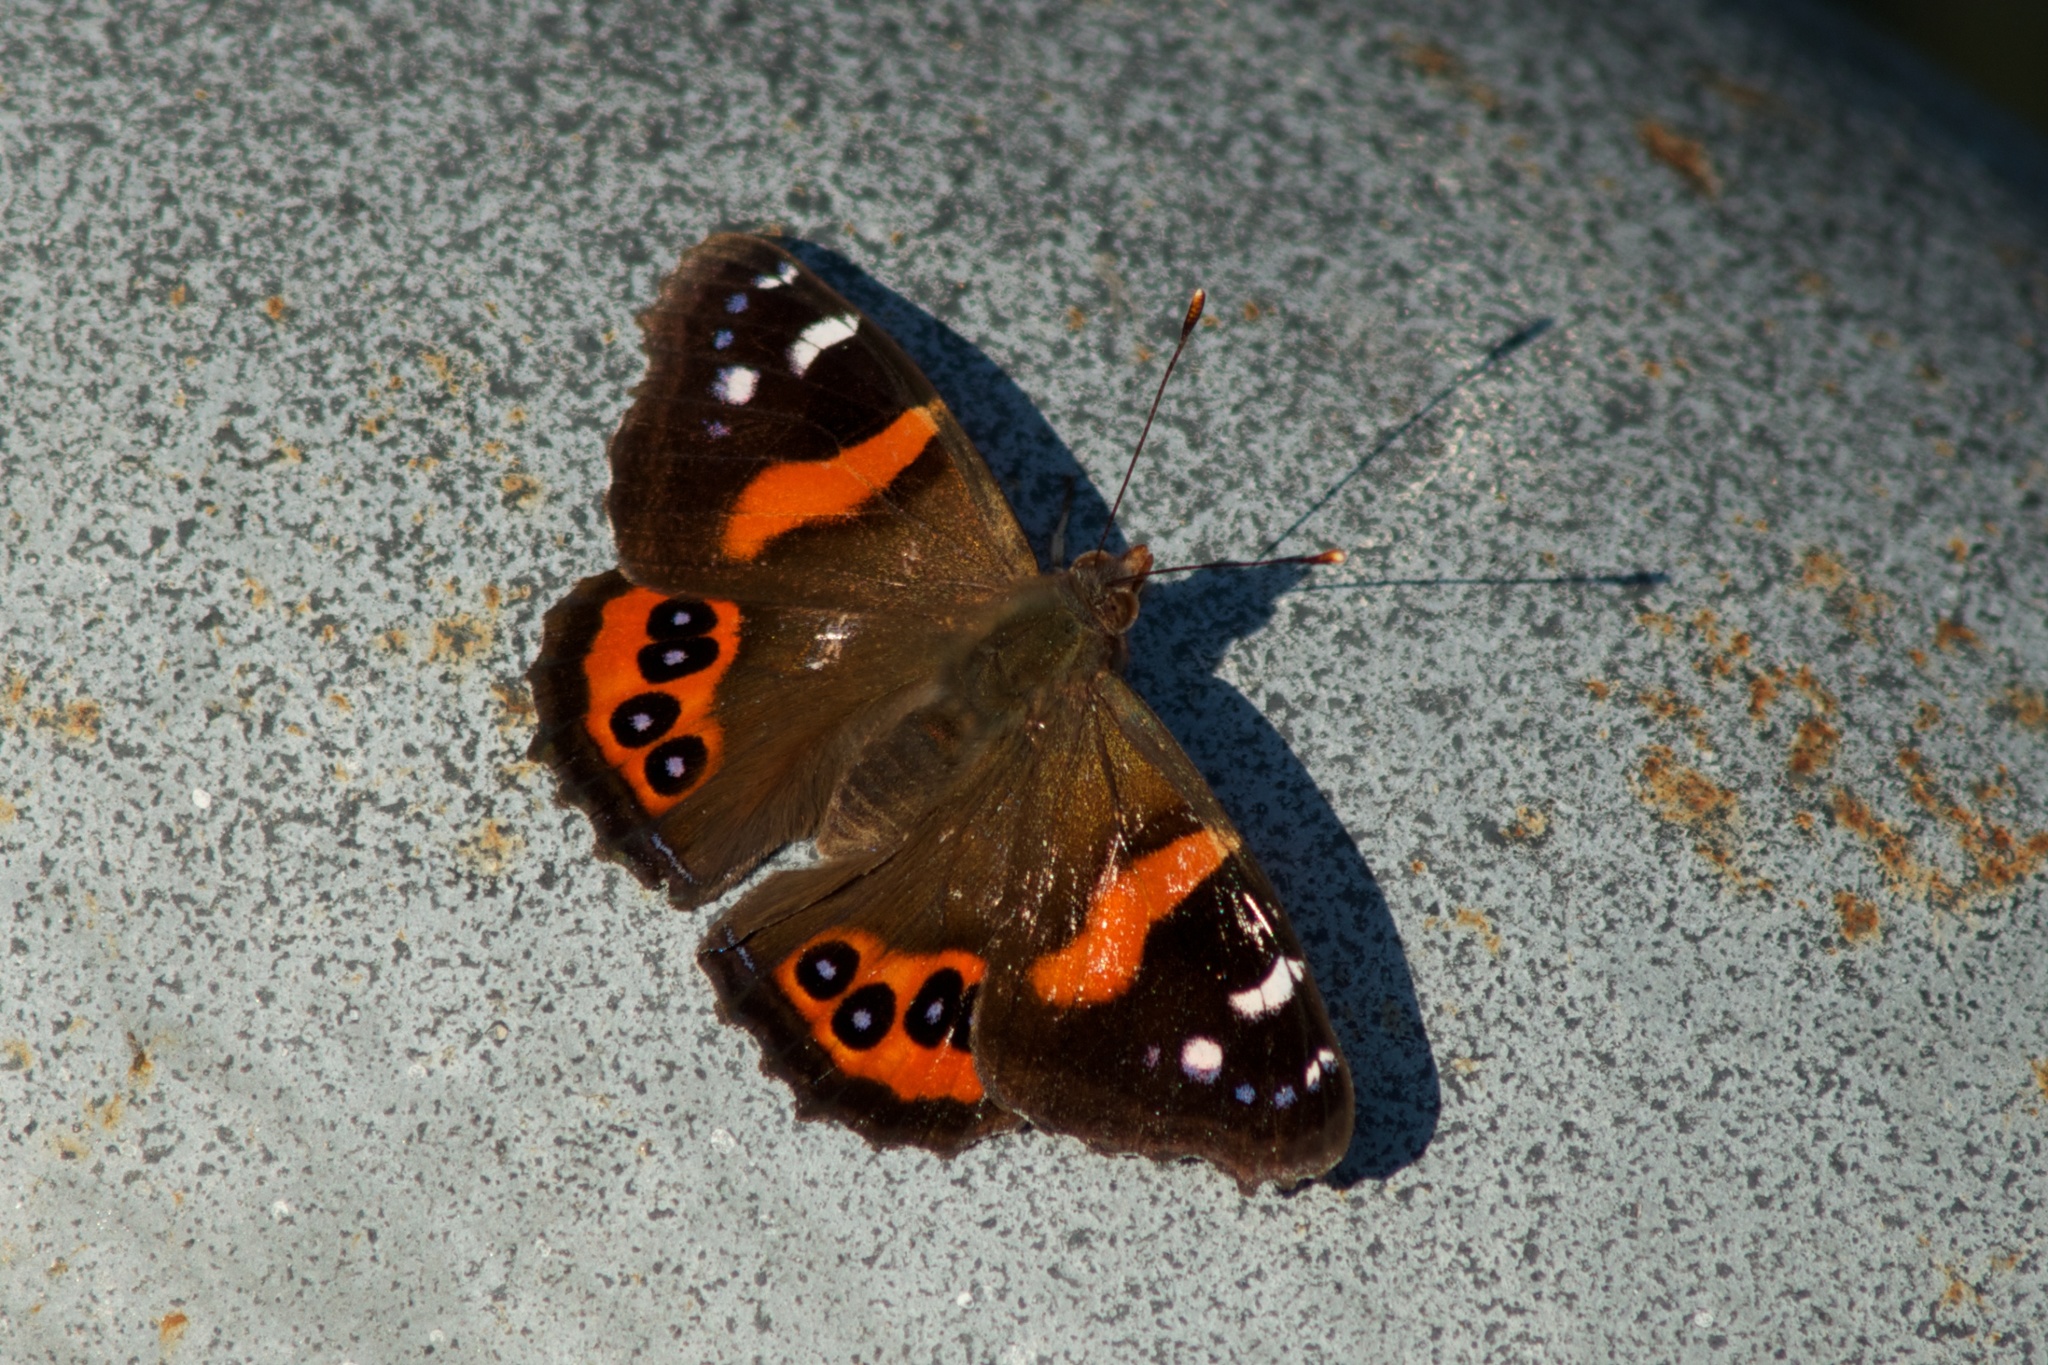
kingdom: Animalia
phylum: Arthropoda
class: Insecta
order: Lepidoptera
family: Nymphalidae
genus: Vanessa
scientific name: Vanessa gonerilla
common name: New zealand red admiral
